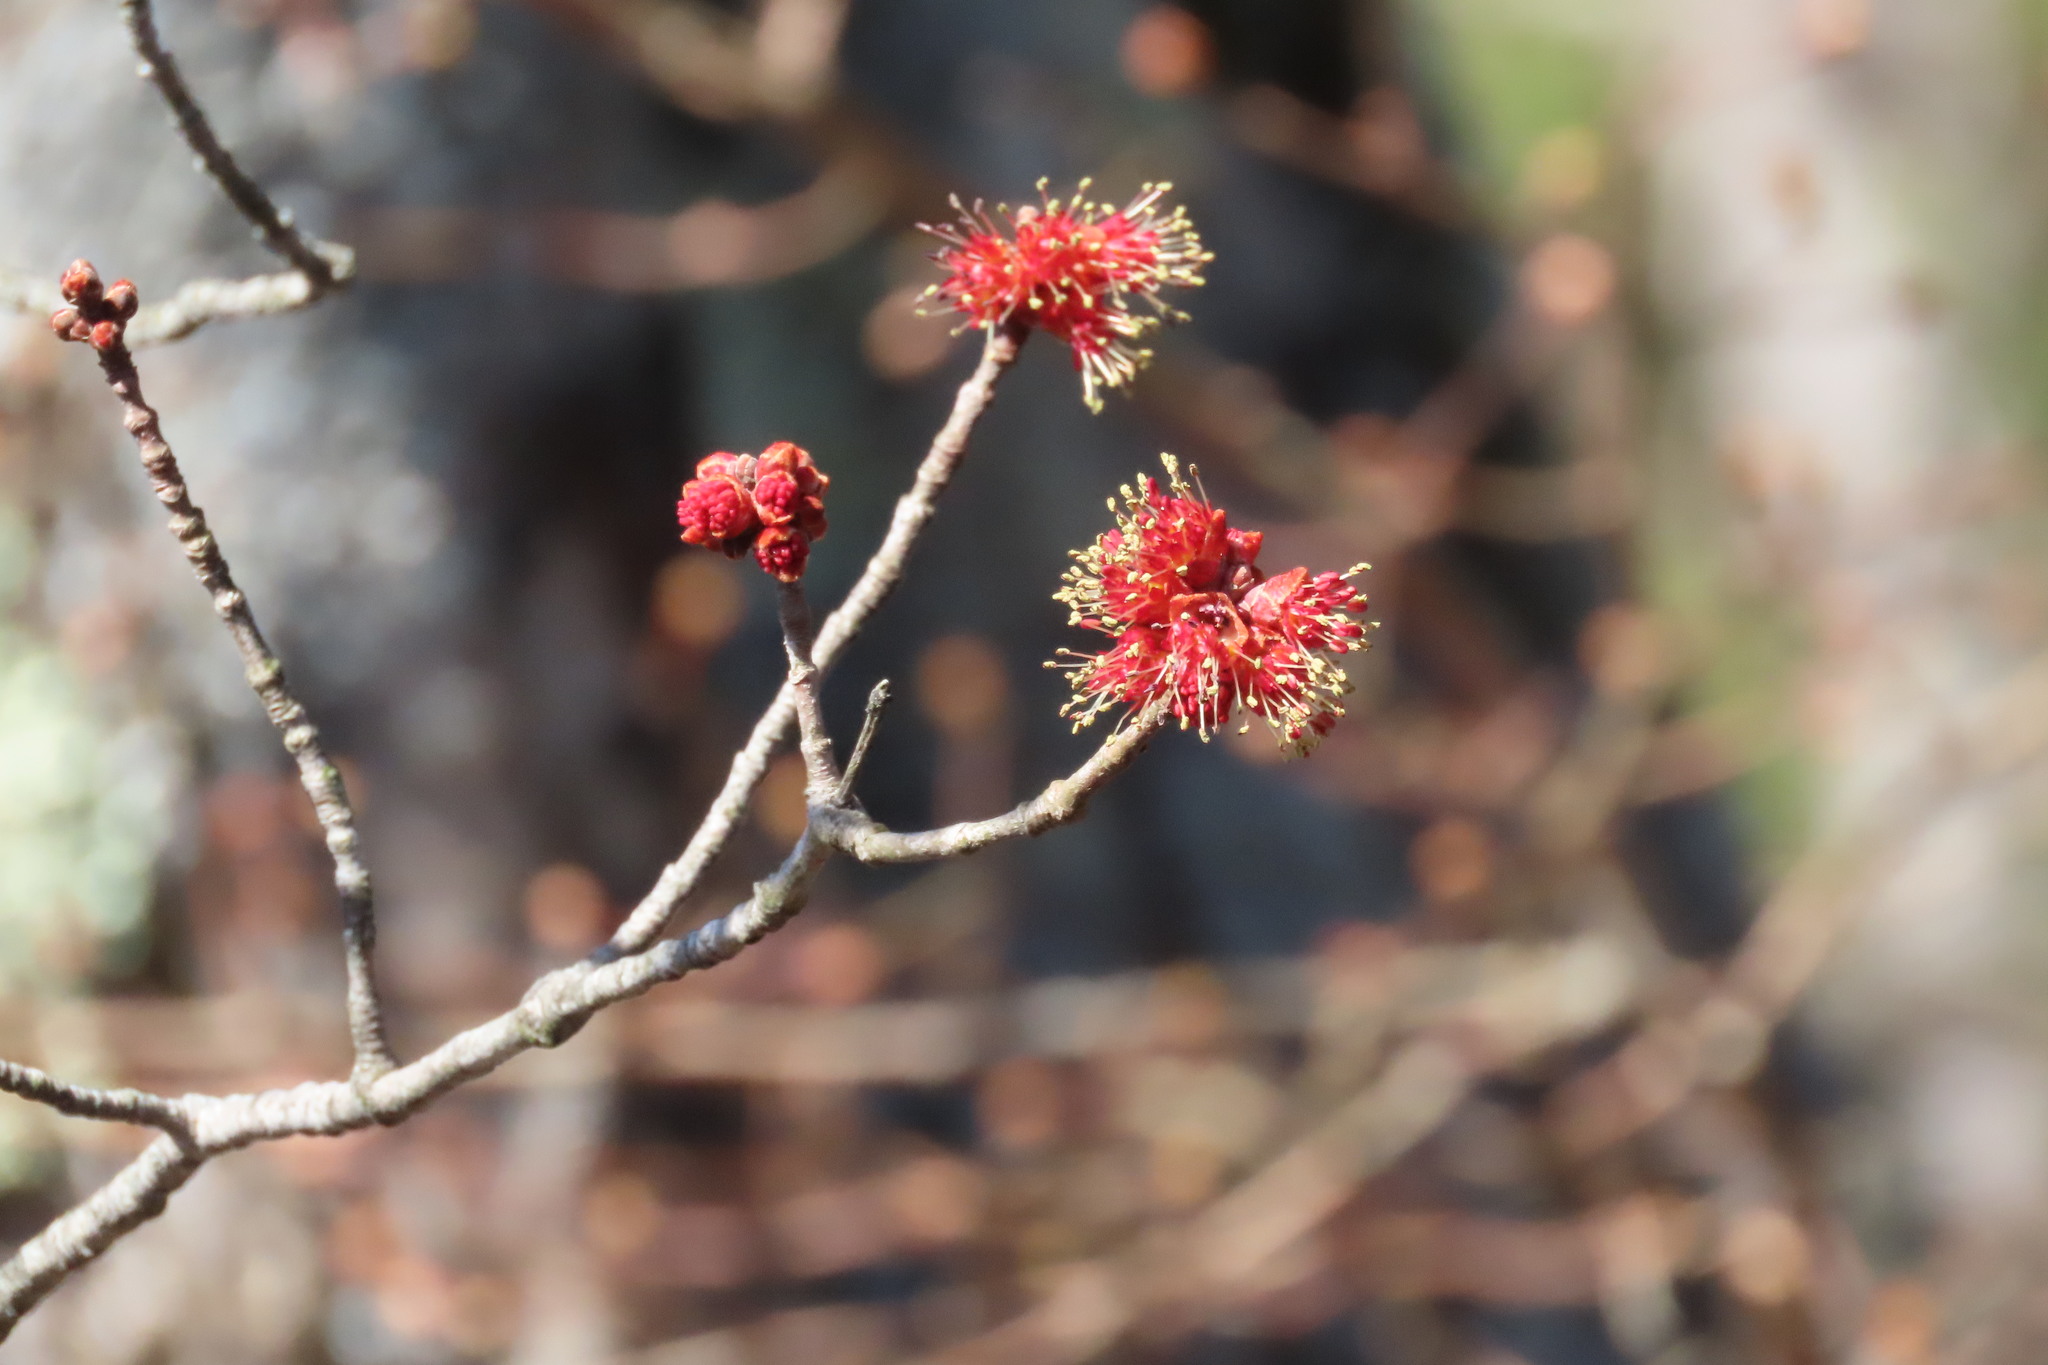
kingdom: Plantae
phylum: Tracheophyta
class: Magnoliopsida
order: Sapindales
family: Sapindaceae
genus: Acer
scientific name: Acer rubrum
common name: Red maple
